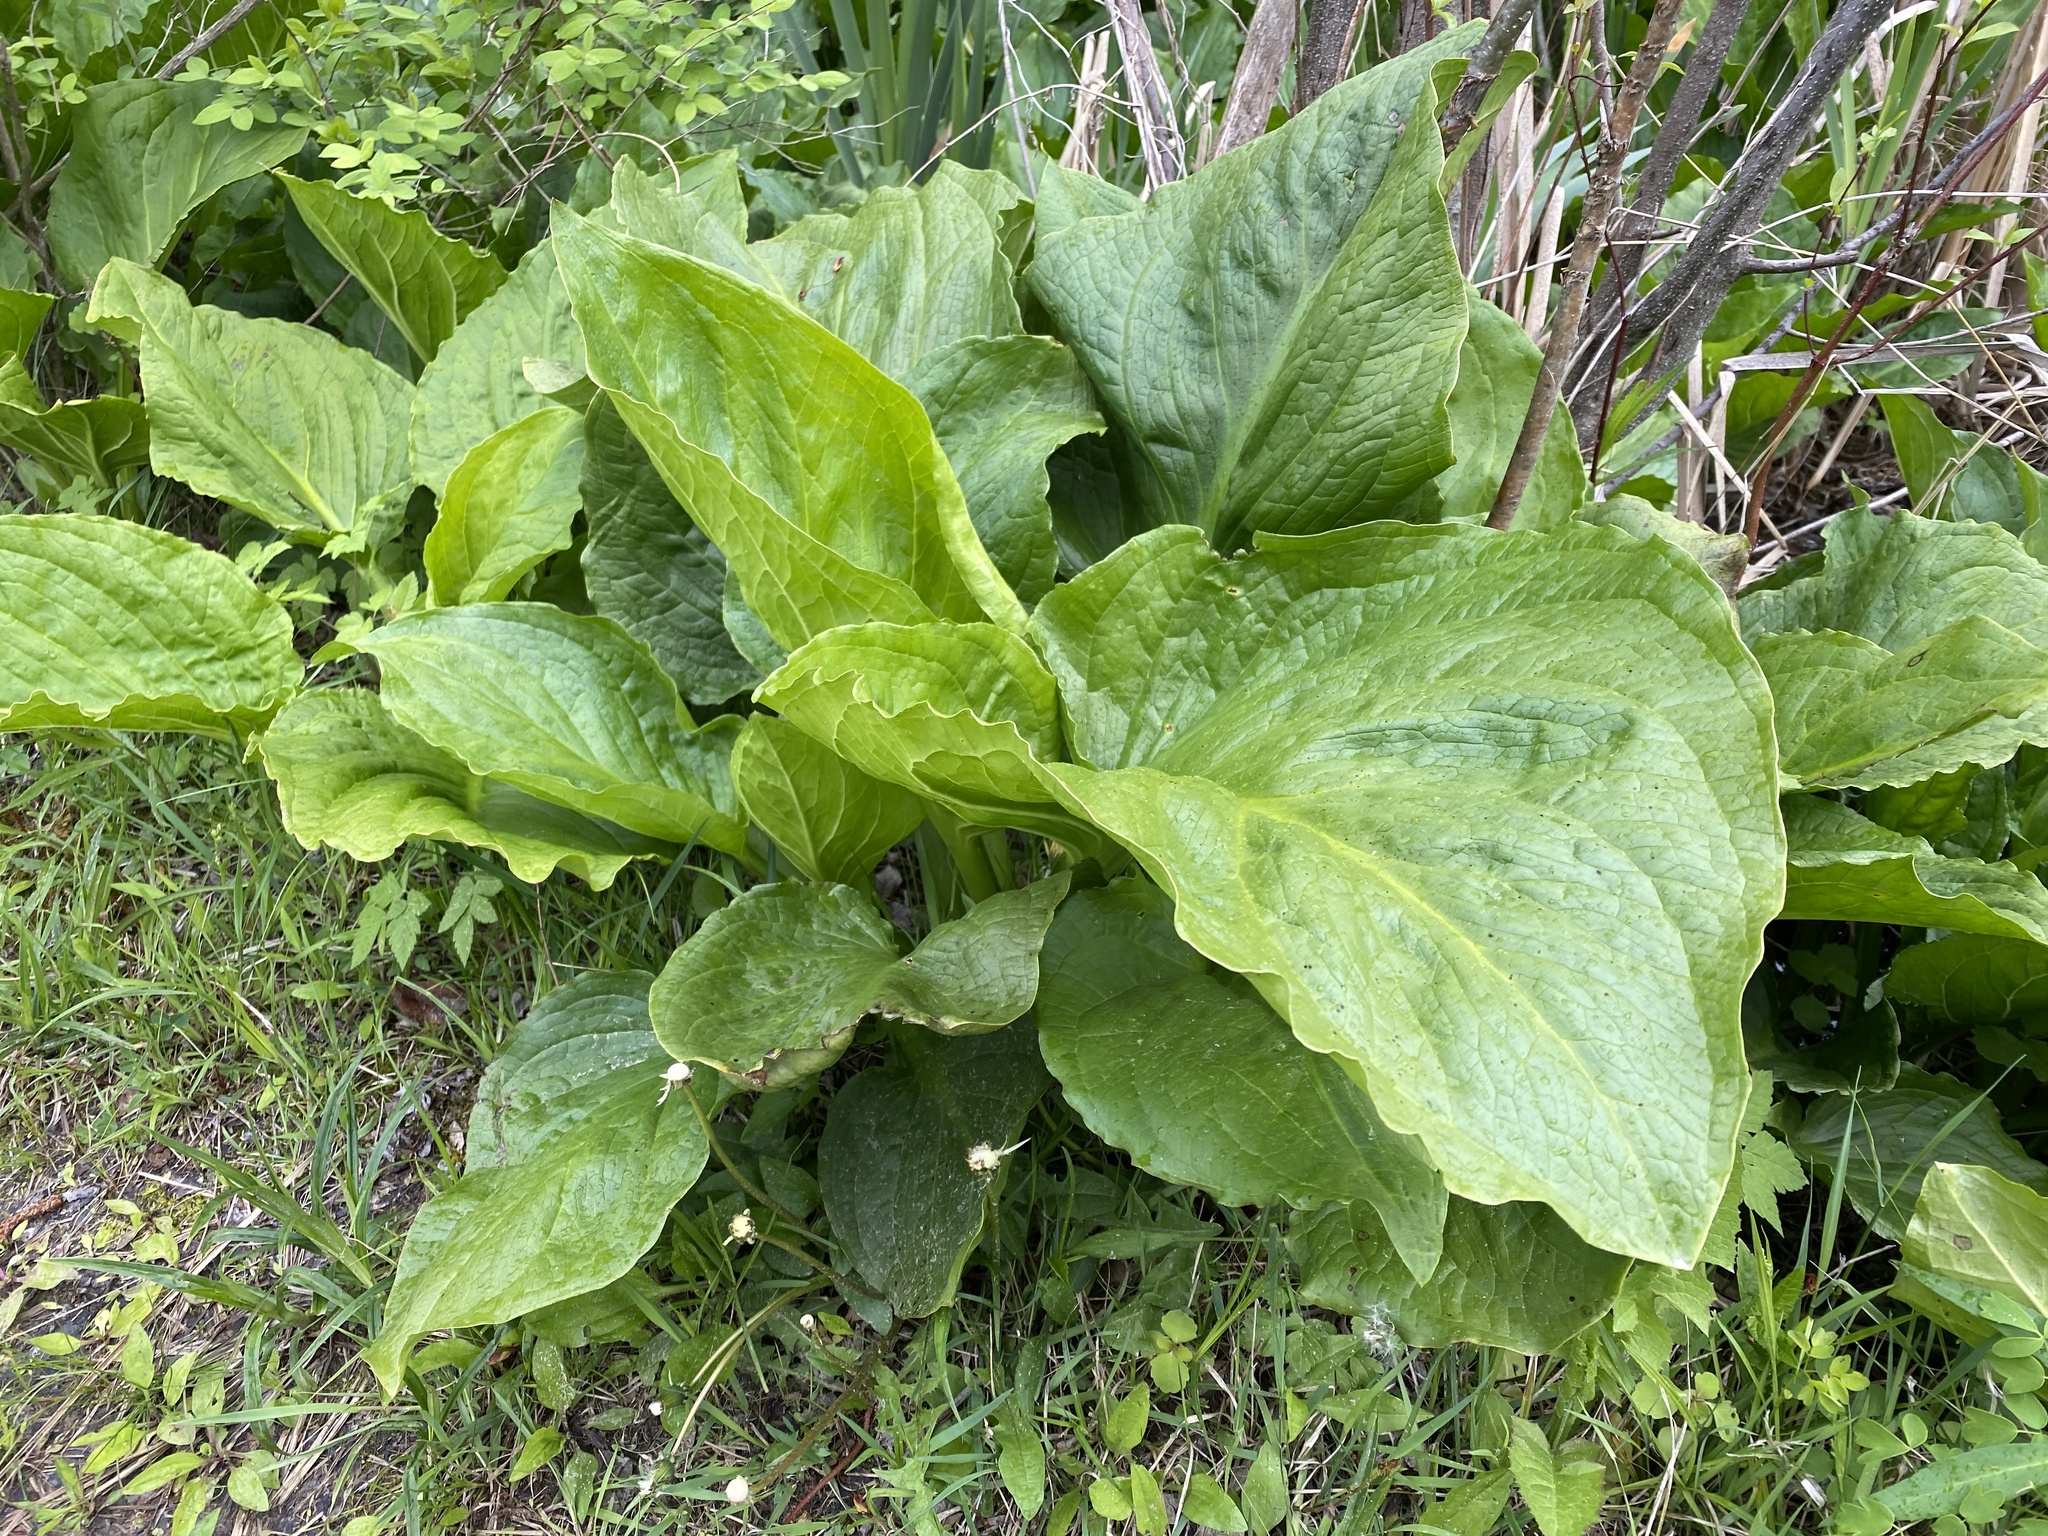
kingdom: Plantae
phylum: Tracheophyta
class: Liliopsida
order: Alismatales
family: Araceae
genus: Symplocarpus
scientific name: Symplocarpus foetidus
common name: Eastern skunk cabbage
